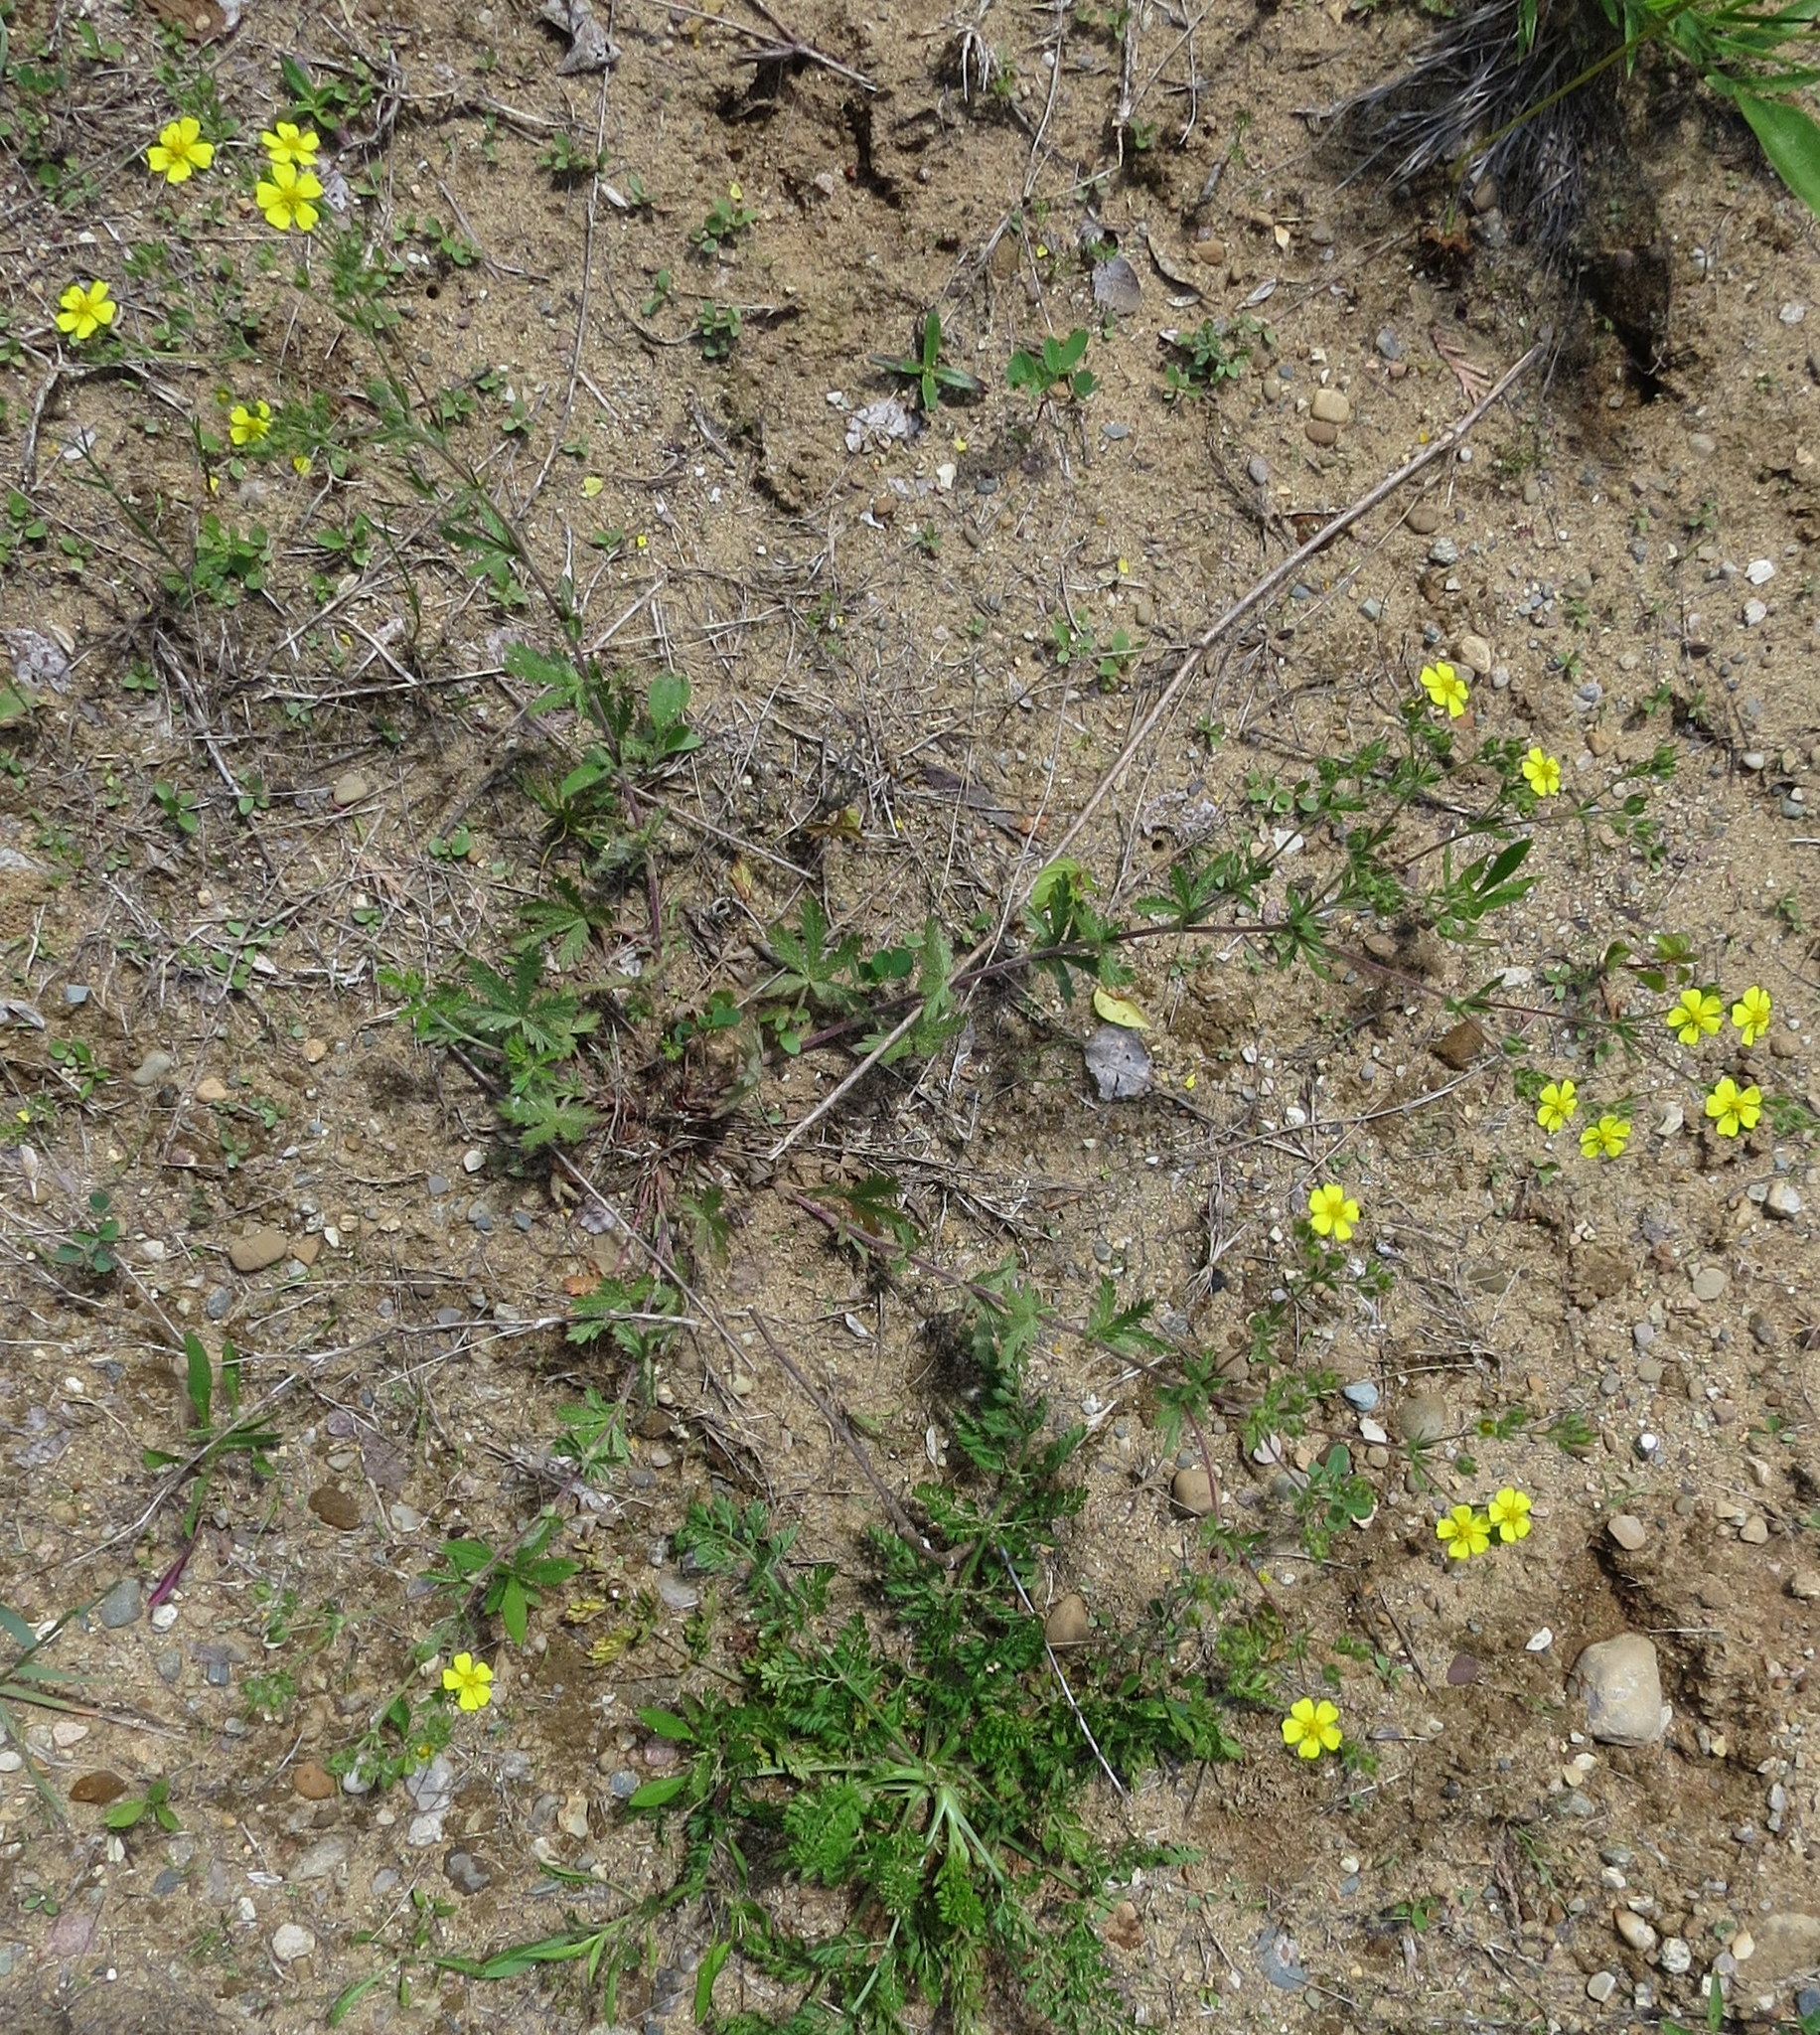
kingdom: Plantae
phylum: Tracheophyta
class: Magnoliopsida
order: Rosales
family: Rosaceae
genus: Potentilla
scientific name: Potentilla inclinata
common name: Grey cinquefoil
